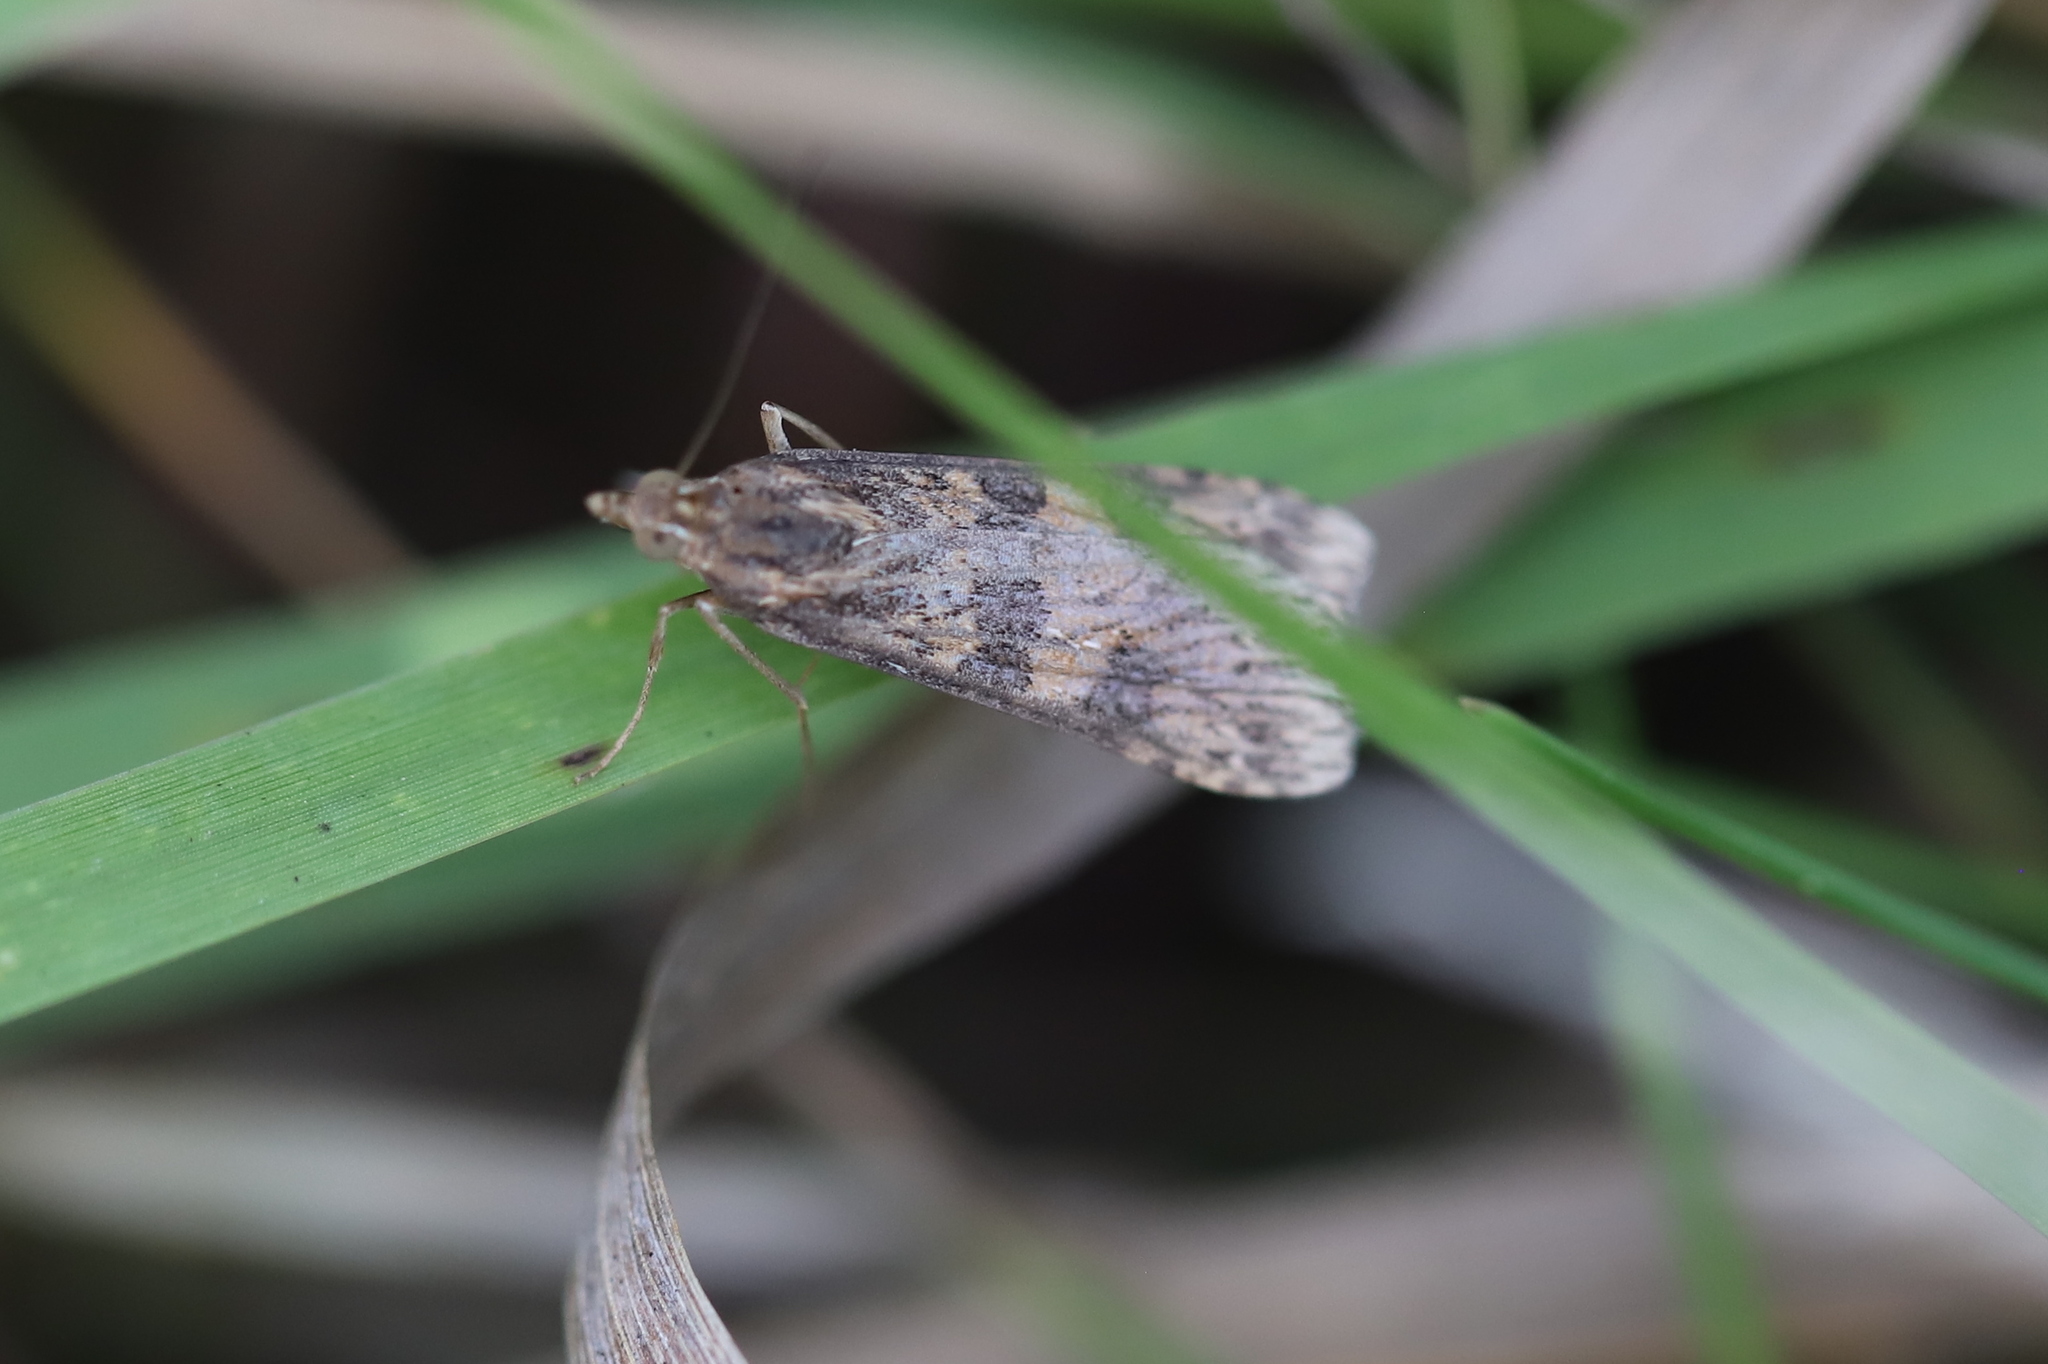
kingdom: Animalia
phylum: Arthropoda
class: Insecta
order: Lepidoptera
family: Crambidae
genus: Nomophila
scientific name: Nomophila nearctica
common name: American rush veneer
